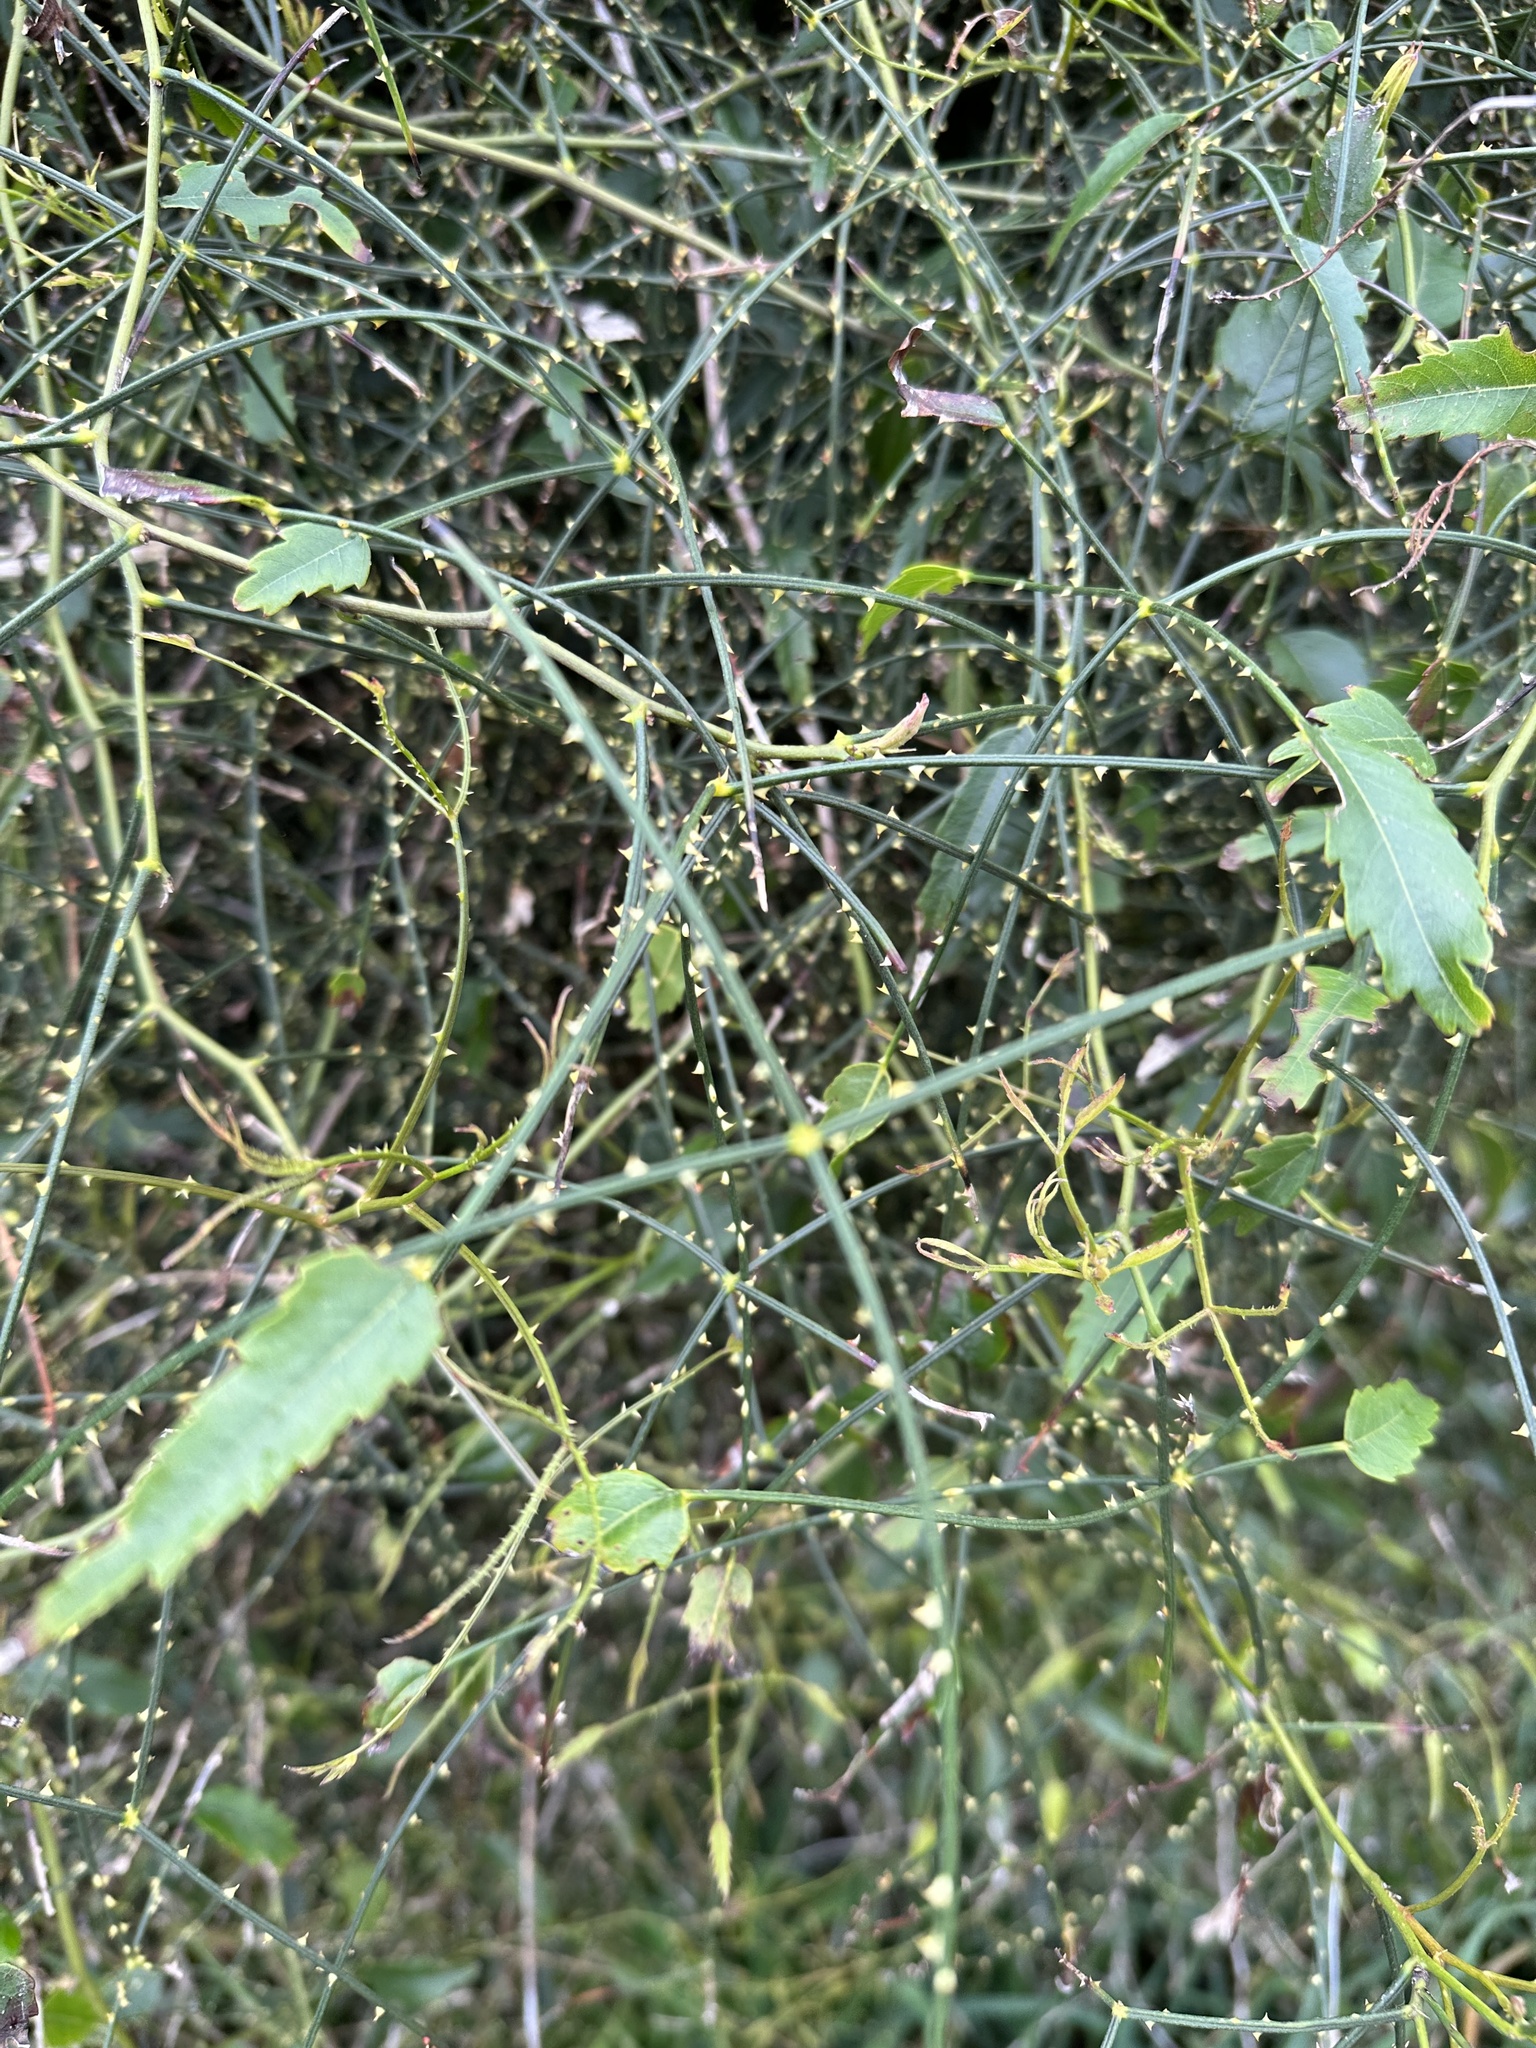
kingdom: Plantae
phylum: Tracheophyta
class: Magnoliopsida
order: Rosales
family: Rosaceae
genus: Rubus
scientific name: Rubus squarrosus
